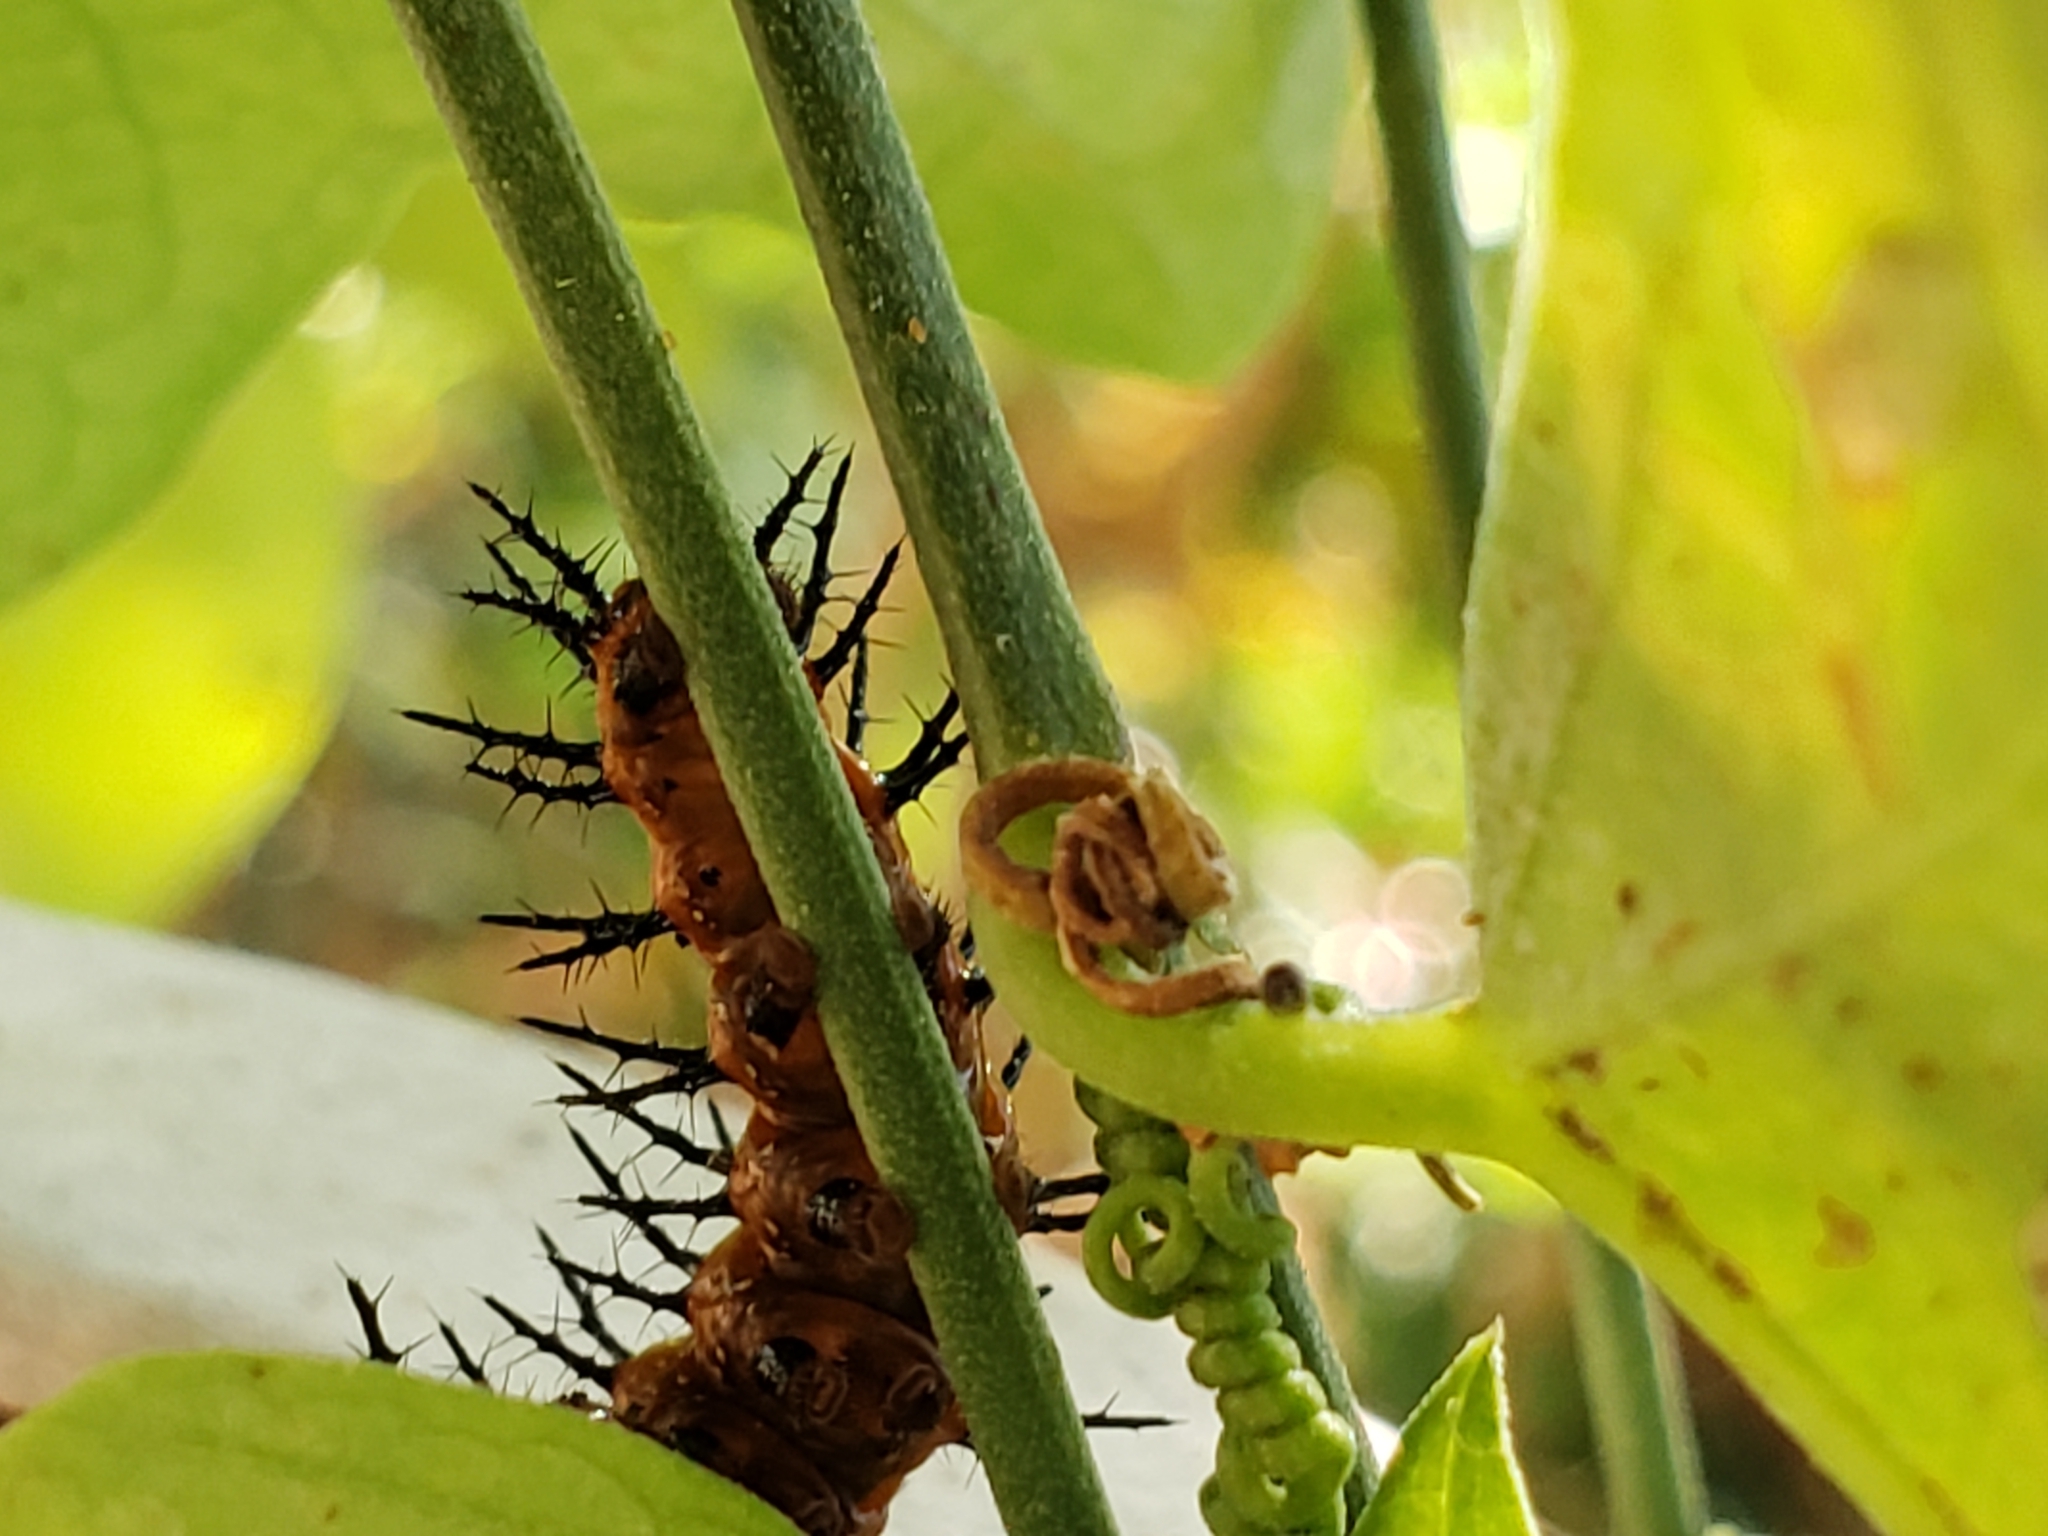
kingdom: Animalia
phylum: Arthropoda
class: Insecta
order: Lepidoptera
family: Nymphalidae
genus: Dione
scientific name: Dione vanillae
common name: Gulf fritillary
